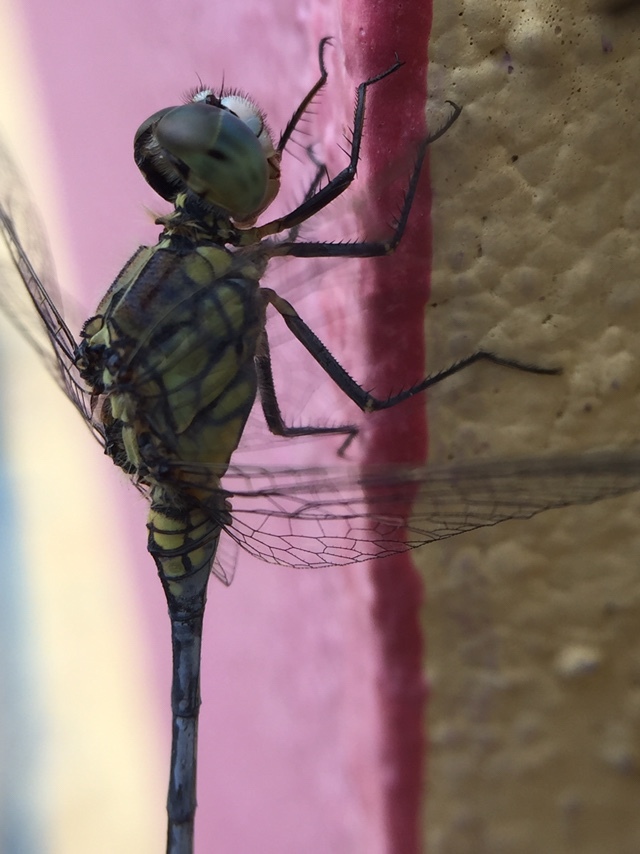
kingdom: Animalia
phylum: Arthropoda
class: Insecta
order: Odonata
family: Libellulidae
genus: Diplacodes
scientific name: Diplacodes trivialis
